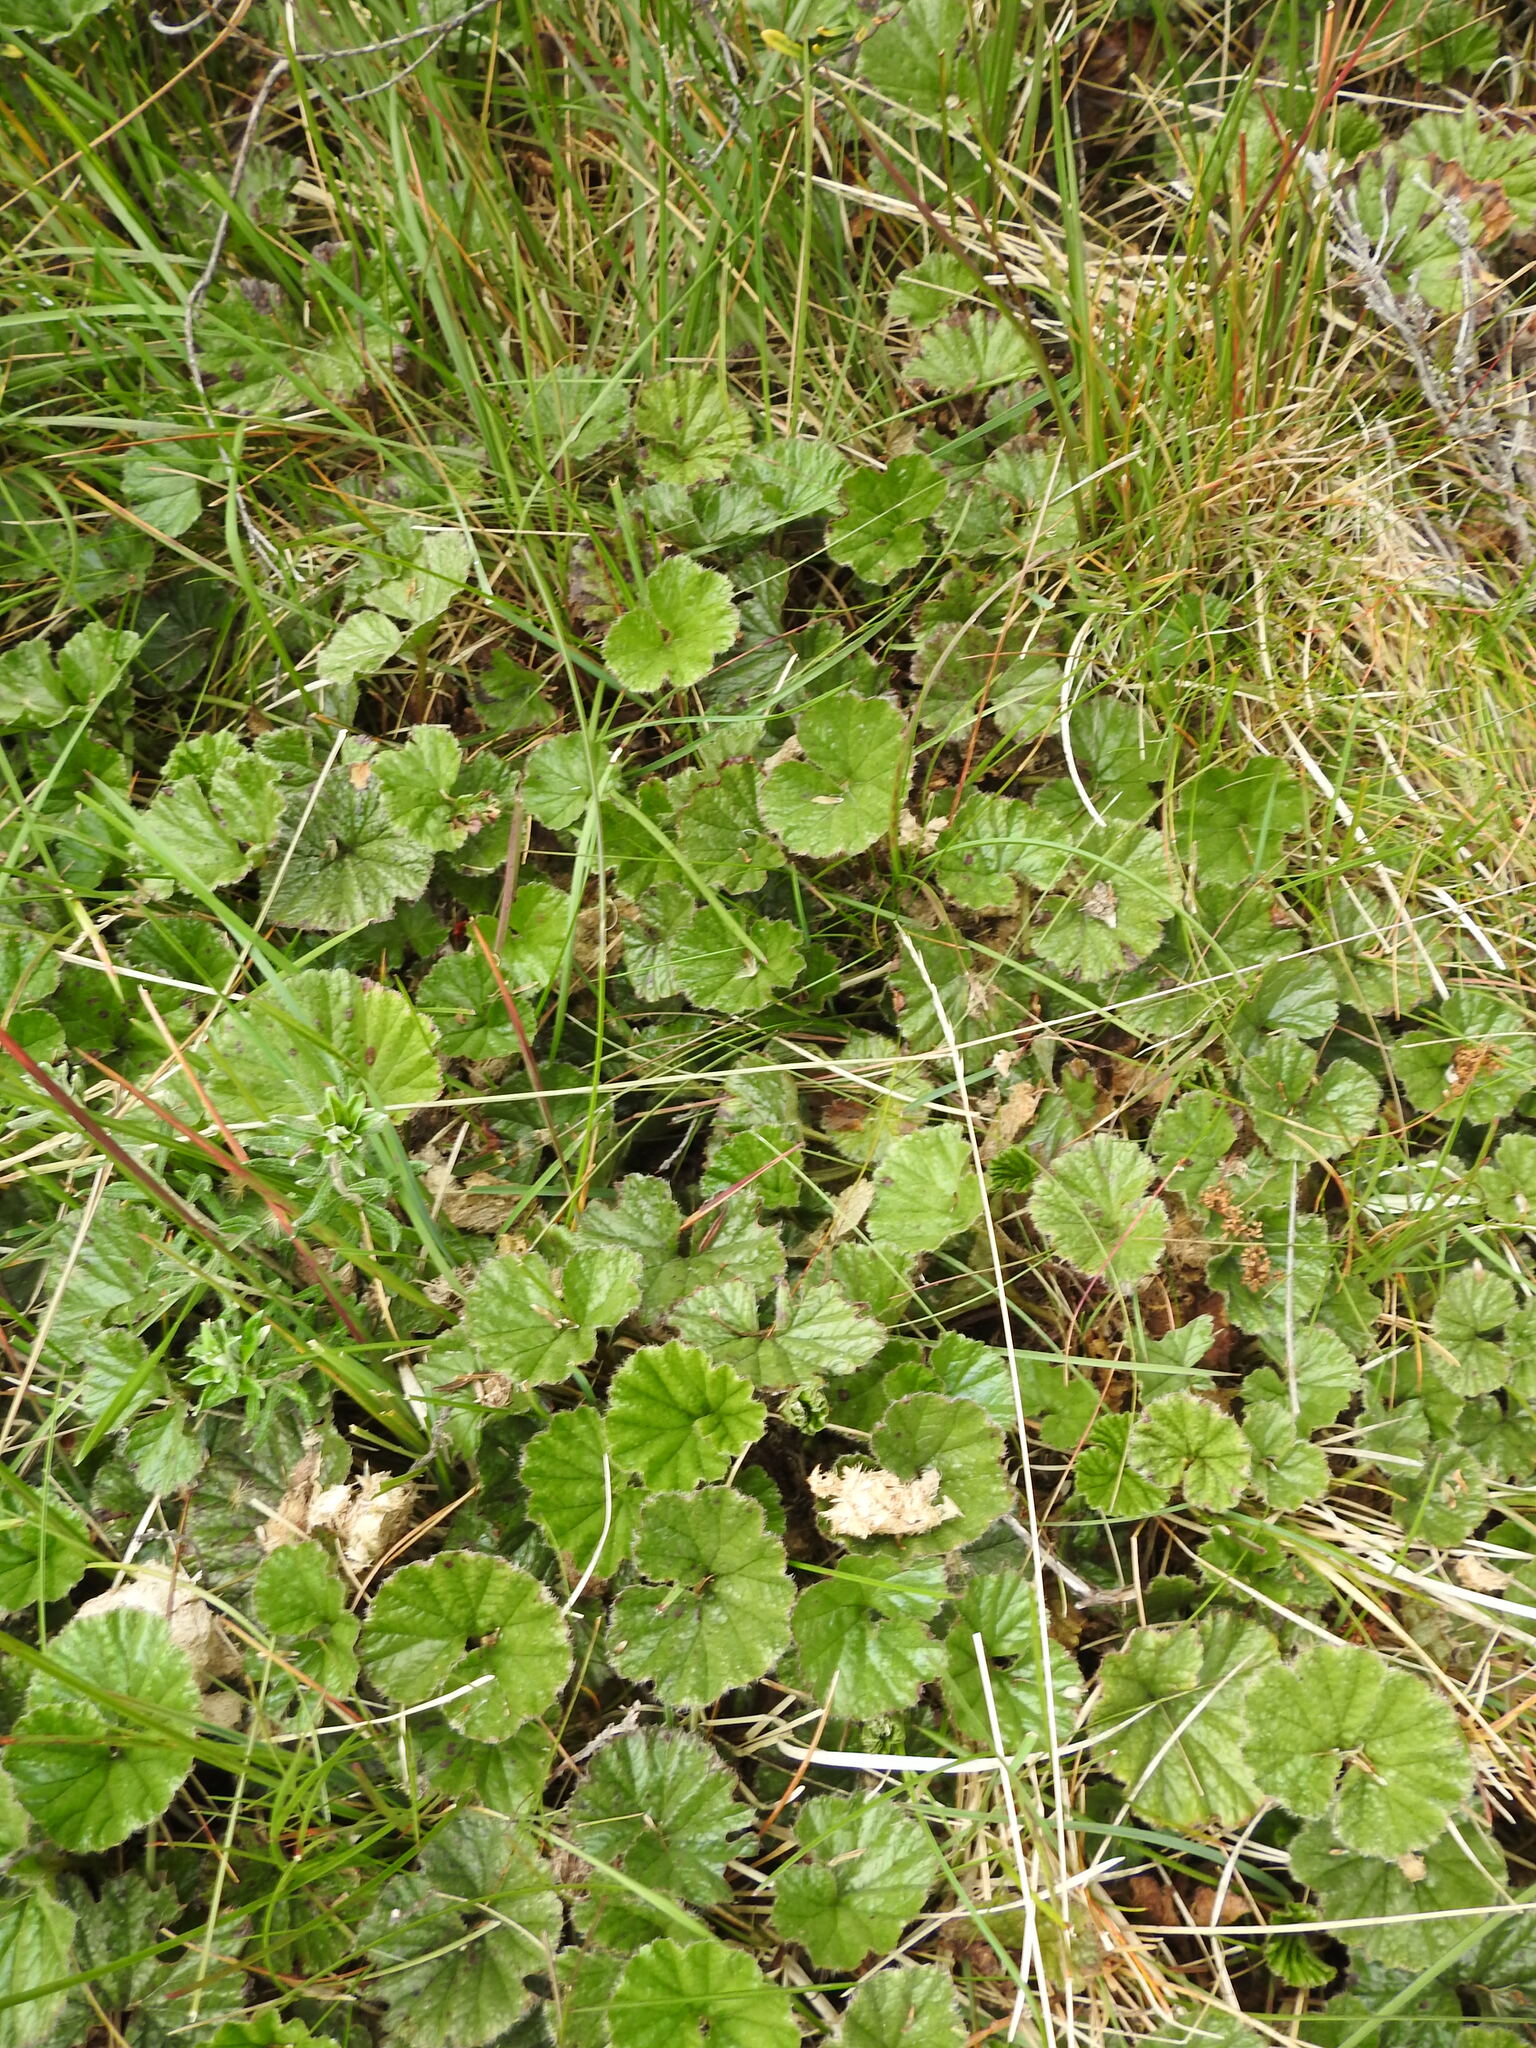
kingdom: Plantae
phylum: Tracheophyta
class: Magnoliopsida
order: Gunnerales
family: Gunneraceae
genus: Gunnera
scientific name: Gunnera magellanica
